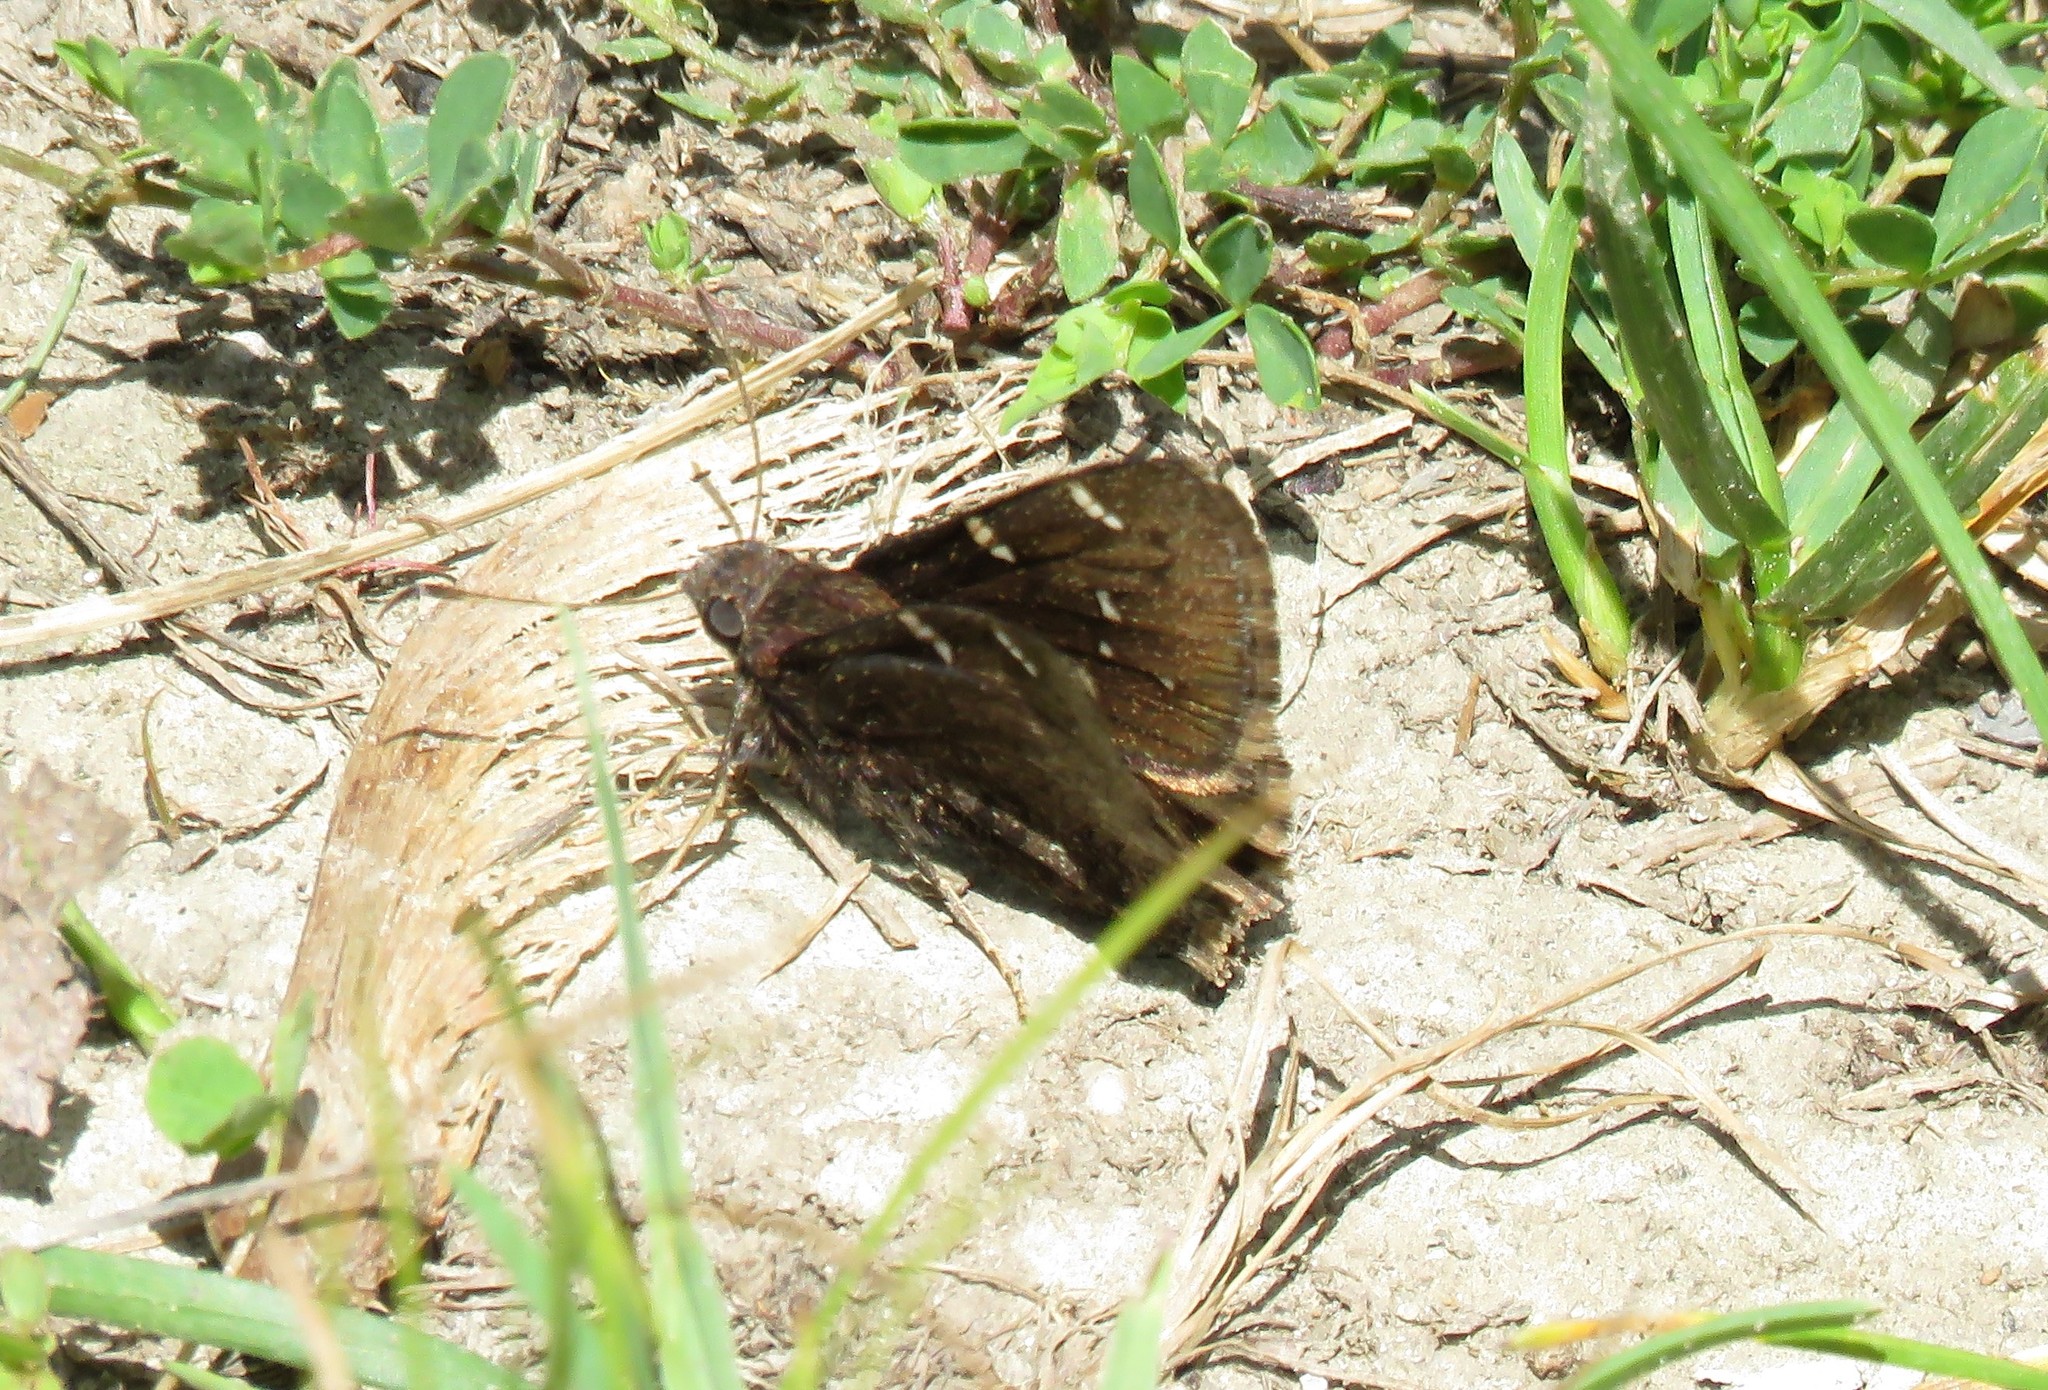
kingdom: Animalia
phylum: Arthropoda
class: Insecta
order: Lepidoptera
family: Hesperiidae
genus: Thorybes
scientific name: Thorybes pylades
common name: Northern cloudywing
